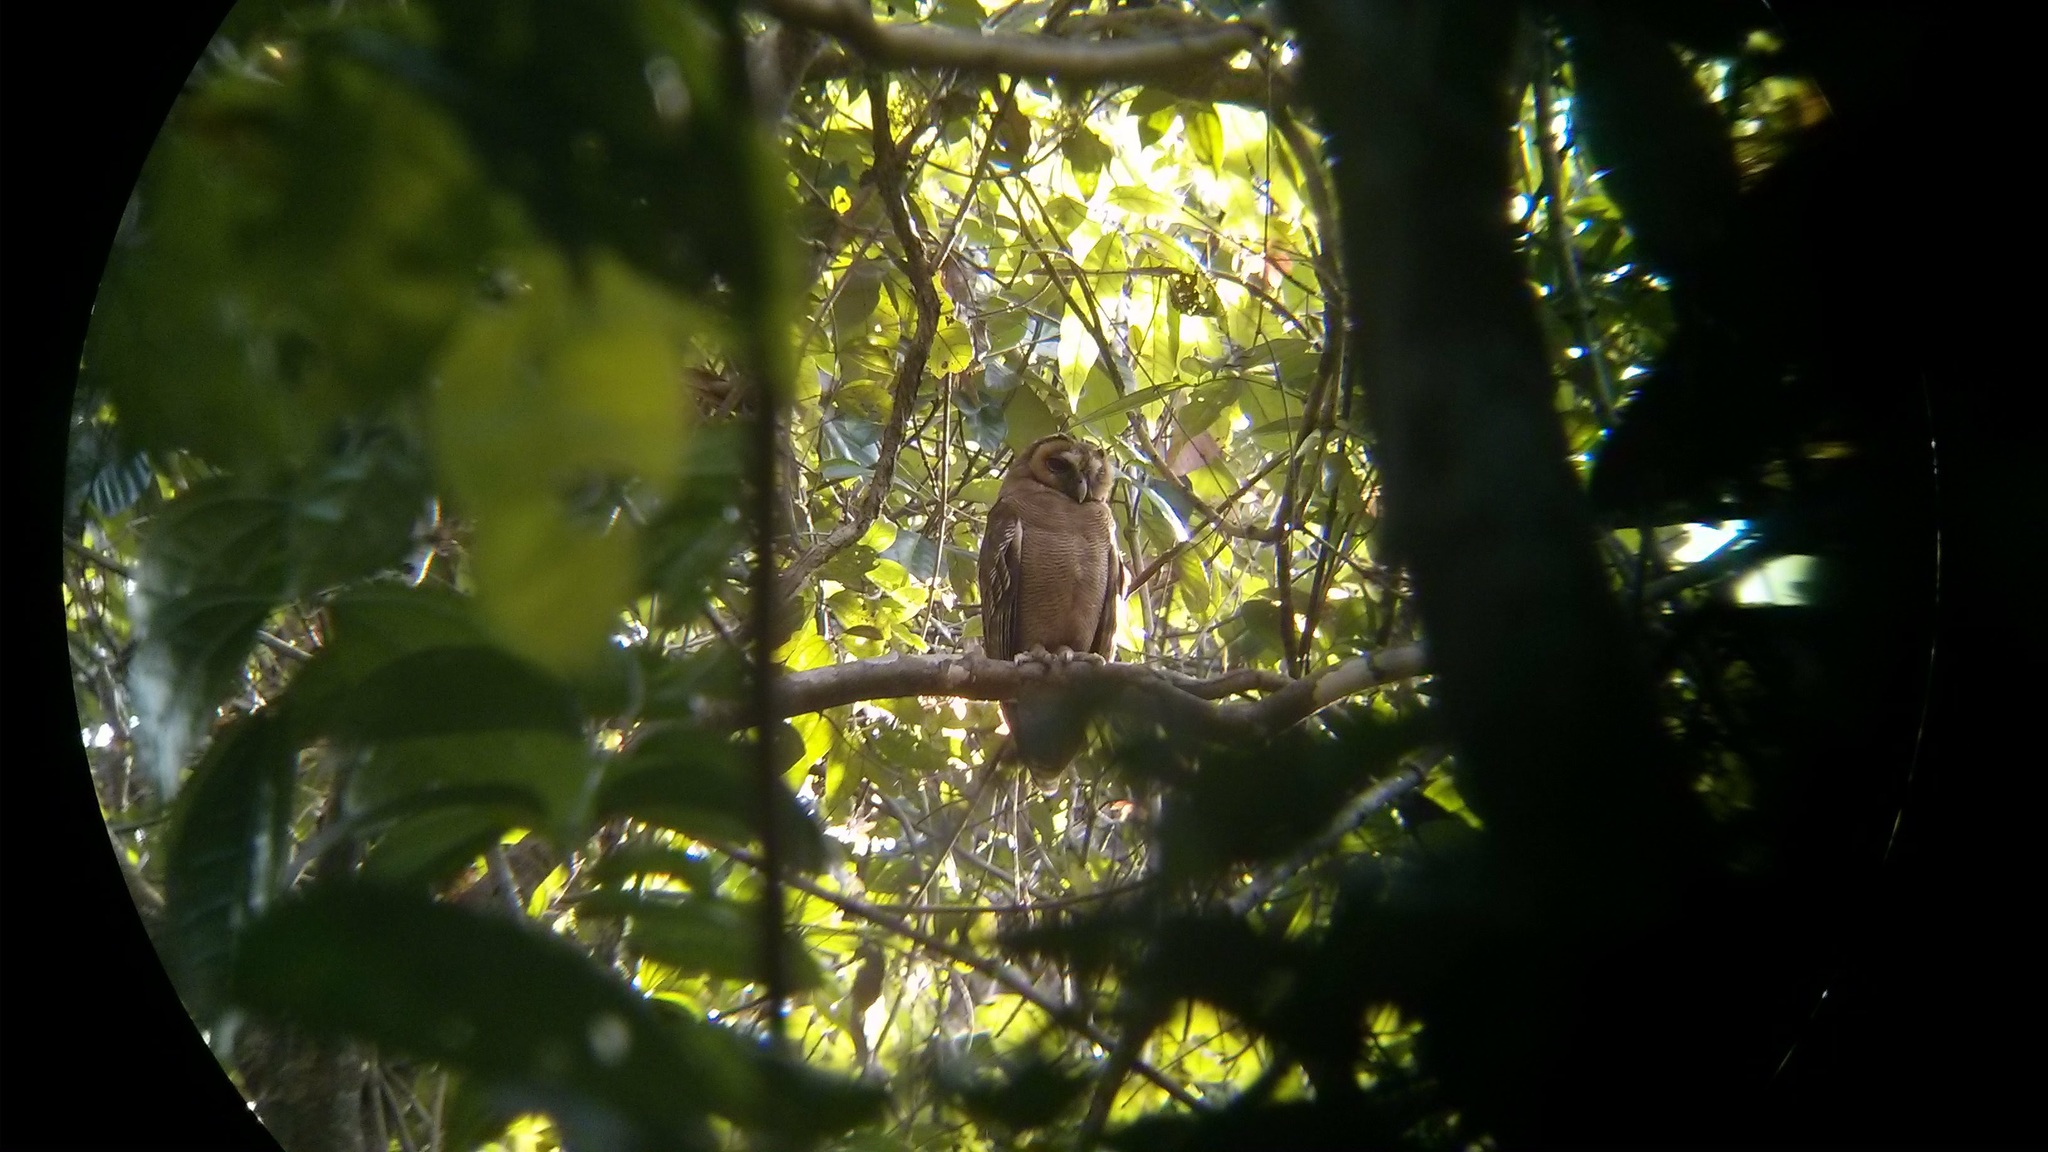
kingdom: Animalia
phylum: Chordata
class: Aves
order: Strigiformes
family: Strigidae
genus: Strix
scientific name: Strix leptogrammica
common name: Brown wood owl
